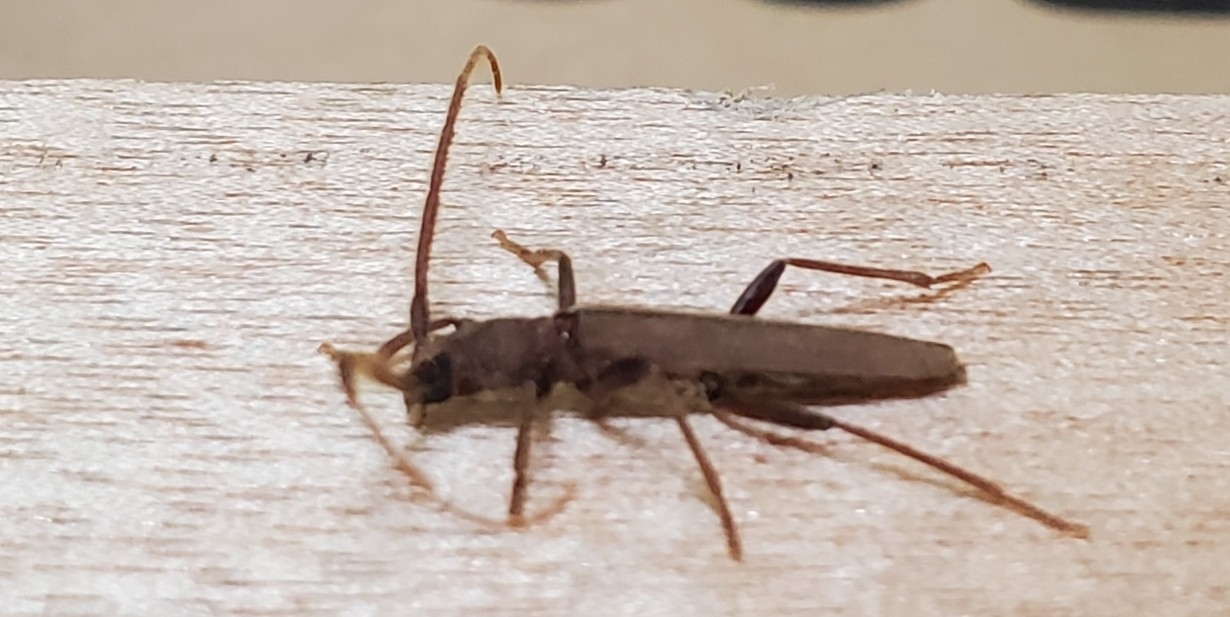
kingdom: Animalia
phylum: Arthropoda
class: Insecta
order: Coleoptera
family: Cerambycidae
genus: Oeme
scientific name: Oeme rigida
